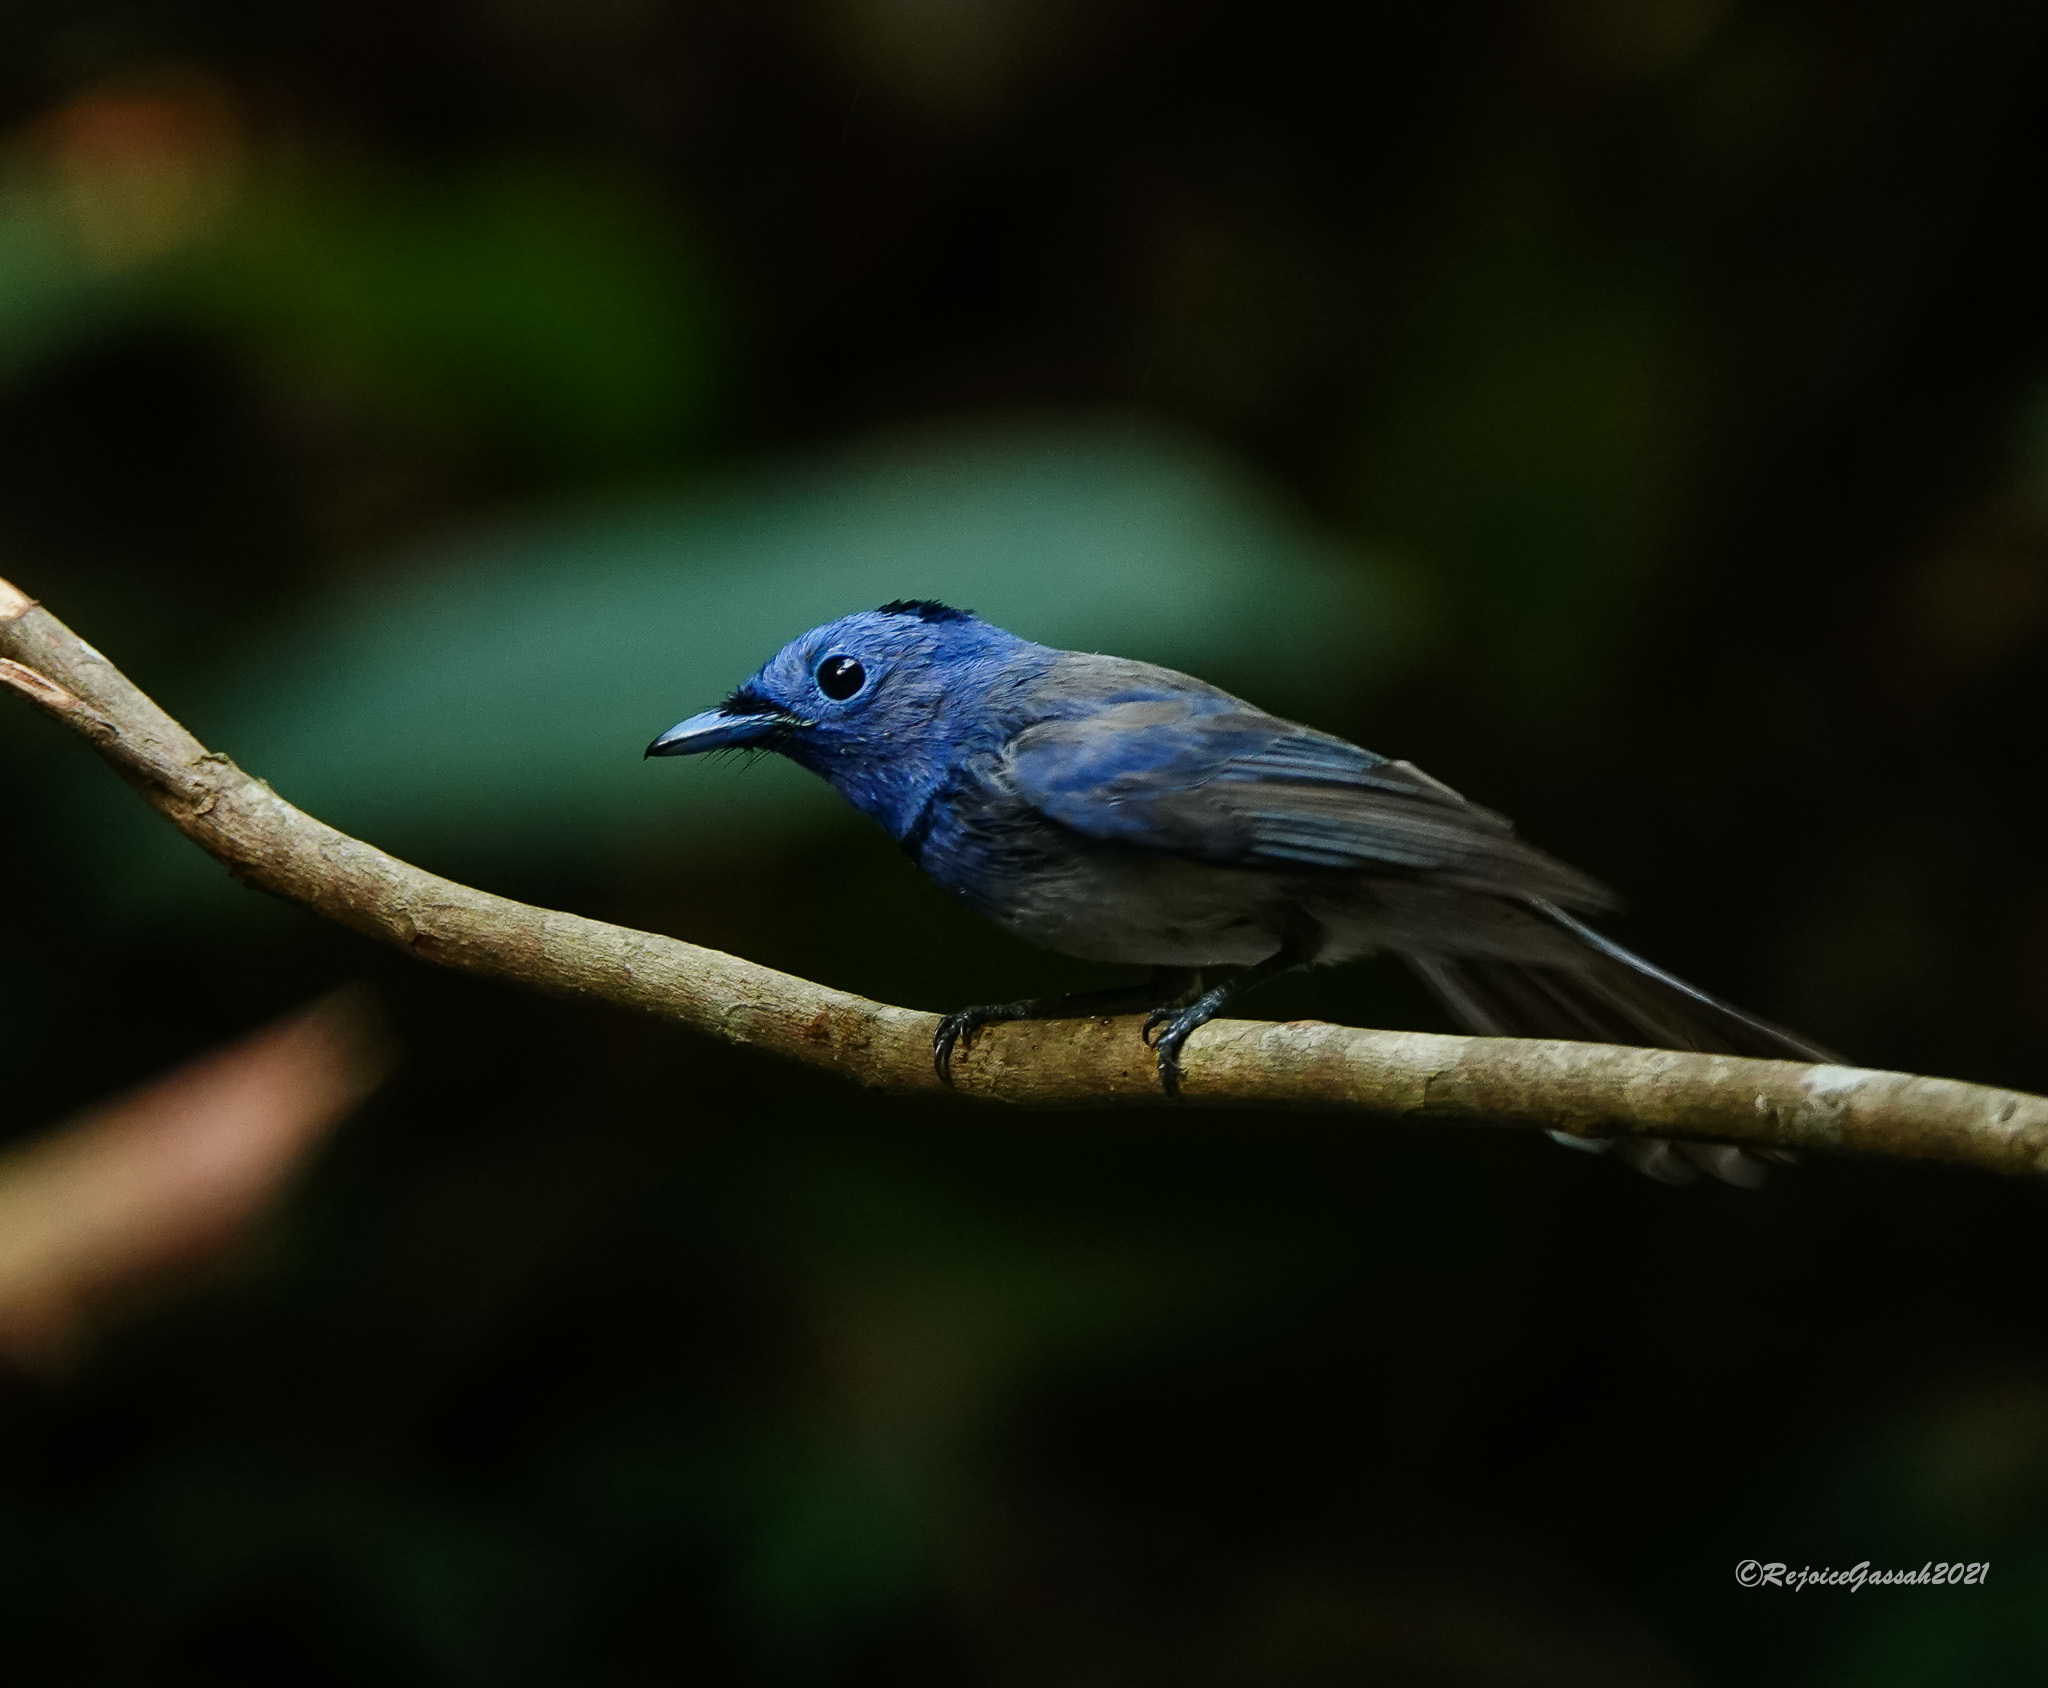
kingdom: Animalia
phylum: Chordata
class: Aves
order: Passeriformes
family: Monarchidae
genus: Hypothymis
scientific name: Hypothymis azurea
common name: Black-naped monarch
